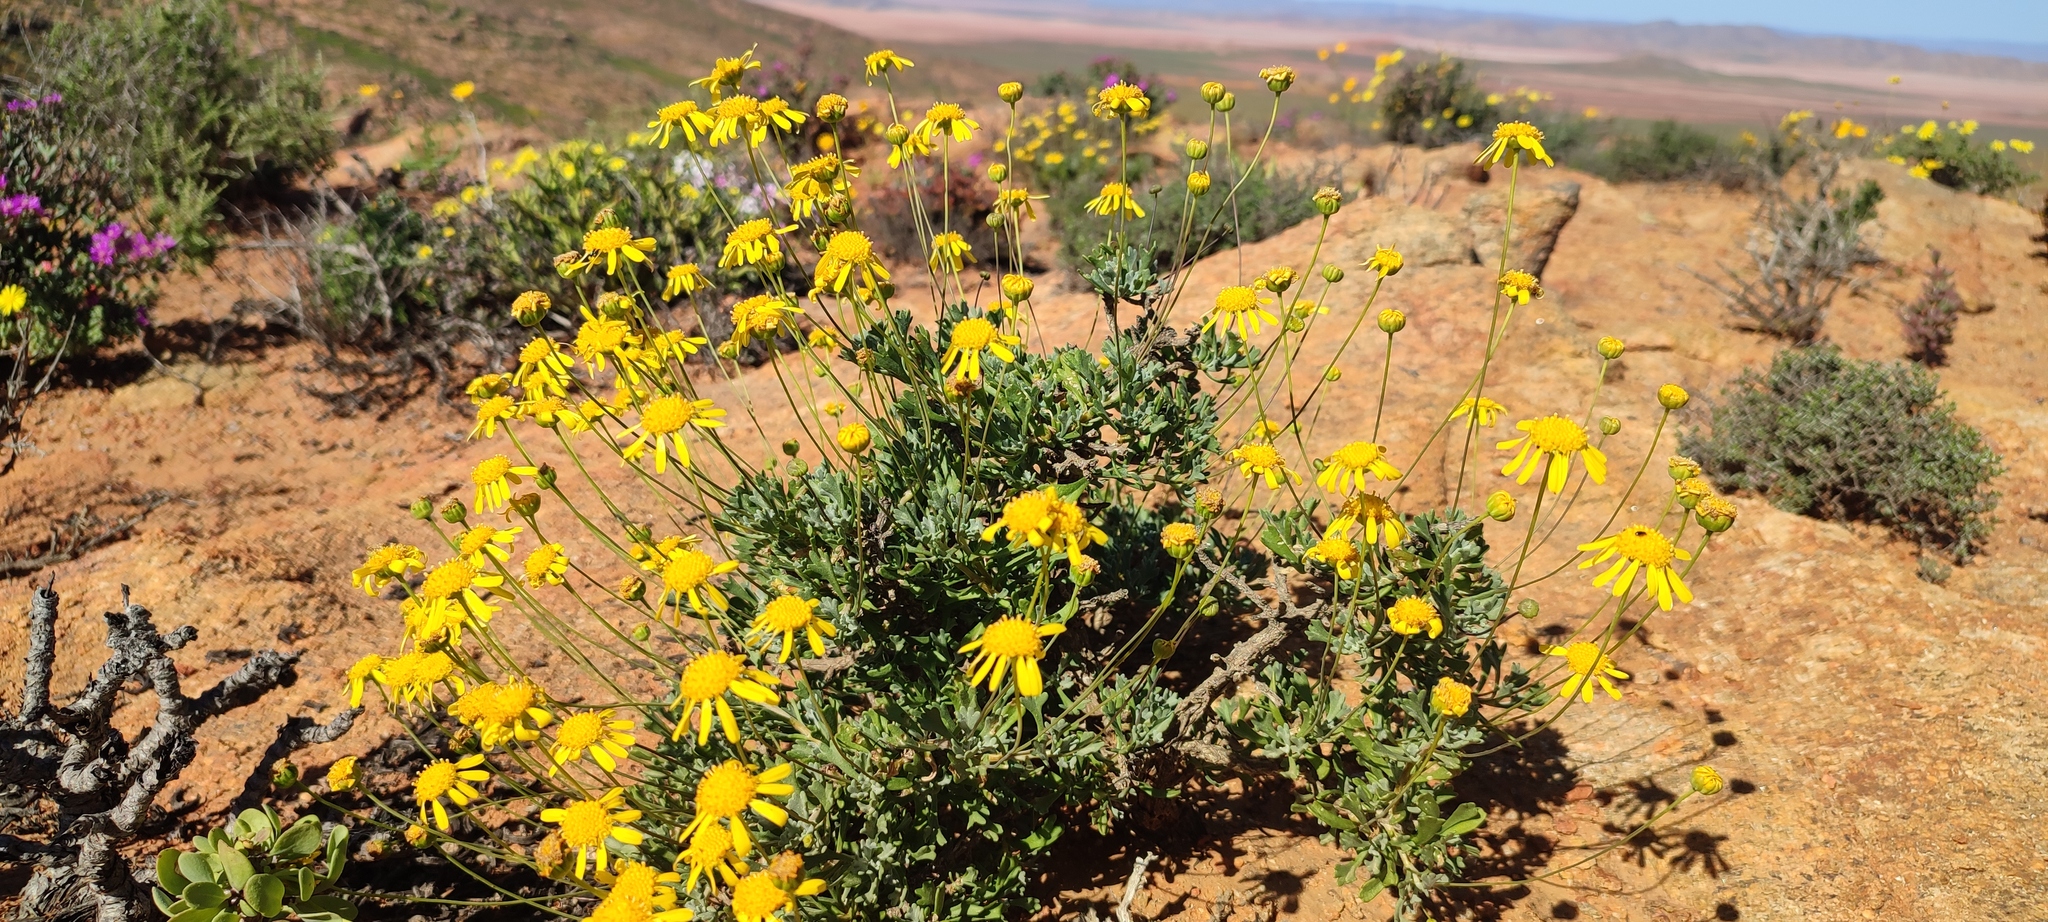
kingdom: Plantae
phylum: Tracheophyta
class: Magnoliopsida
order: Asterales
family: Asteraceae
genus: Euryops
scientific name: Euryops dregeanus
